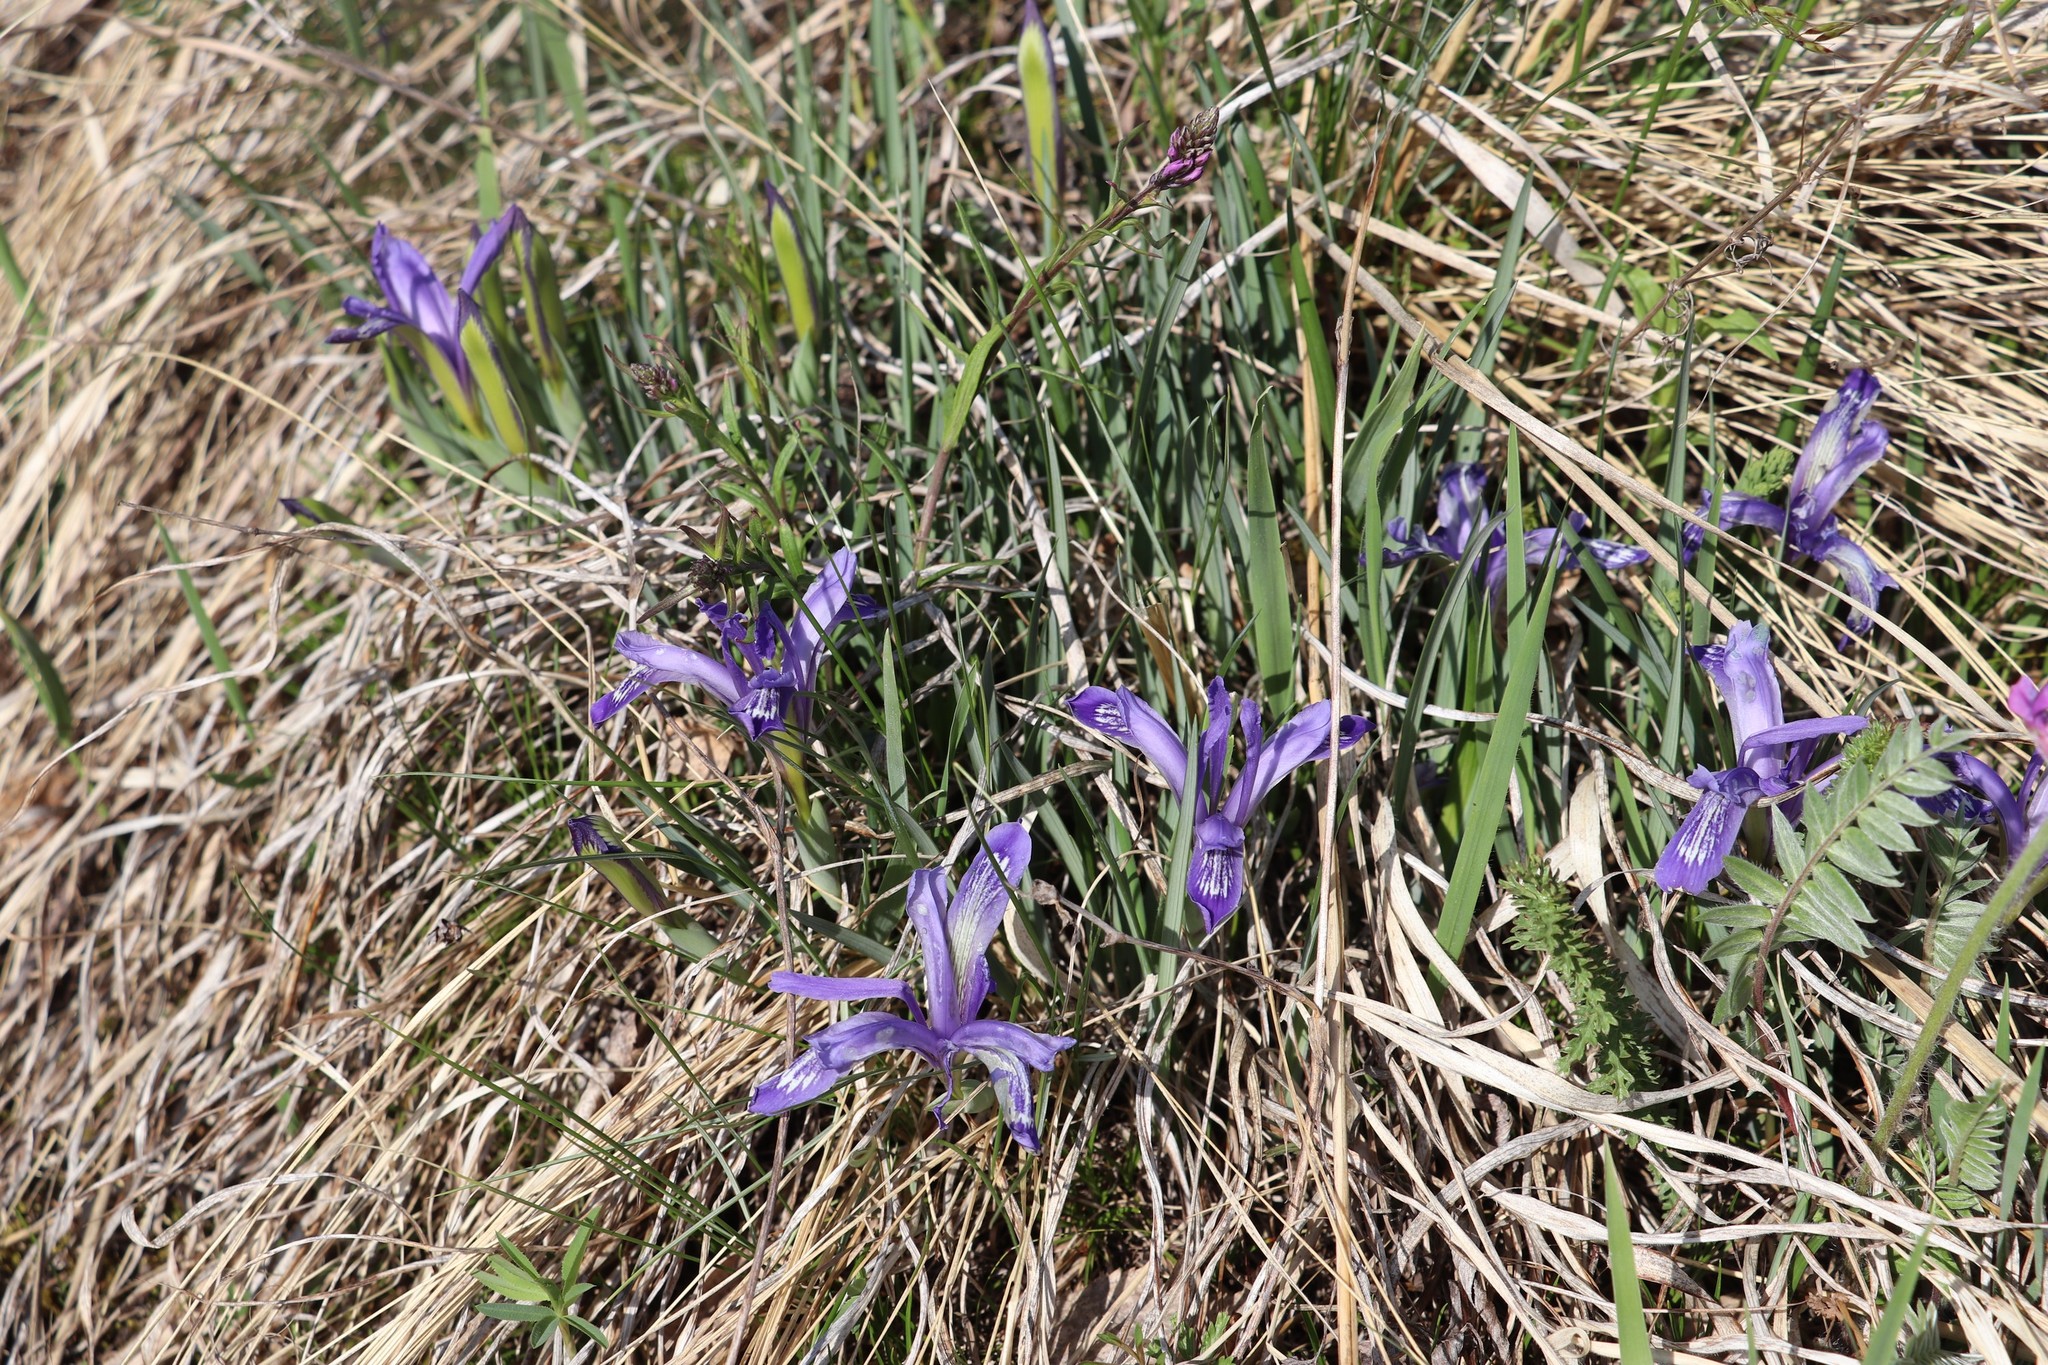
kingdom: Plantae
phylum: Tracheophyta
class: Liliopsida
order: Asparagales
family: Iridaceae
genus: Iris
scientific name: Iris ruthenica
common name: Purple-bract iris
